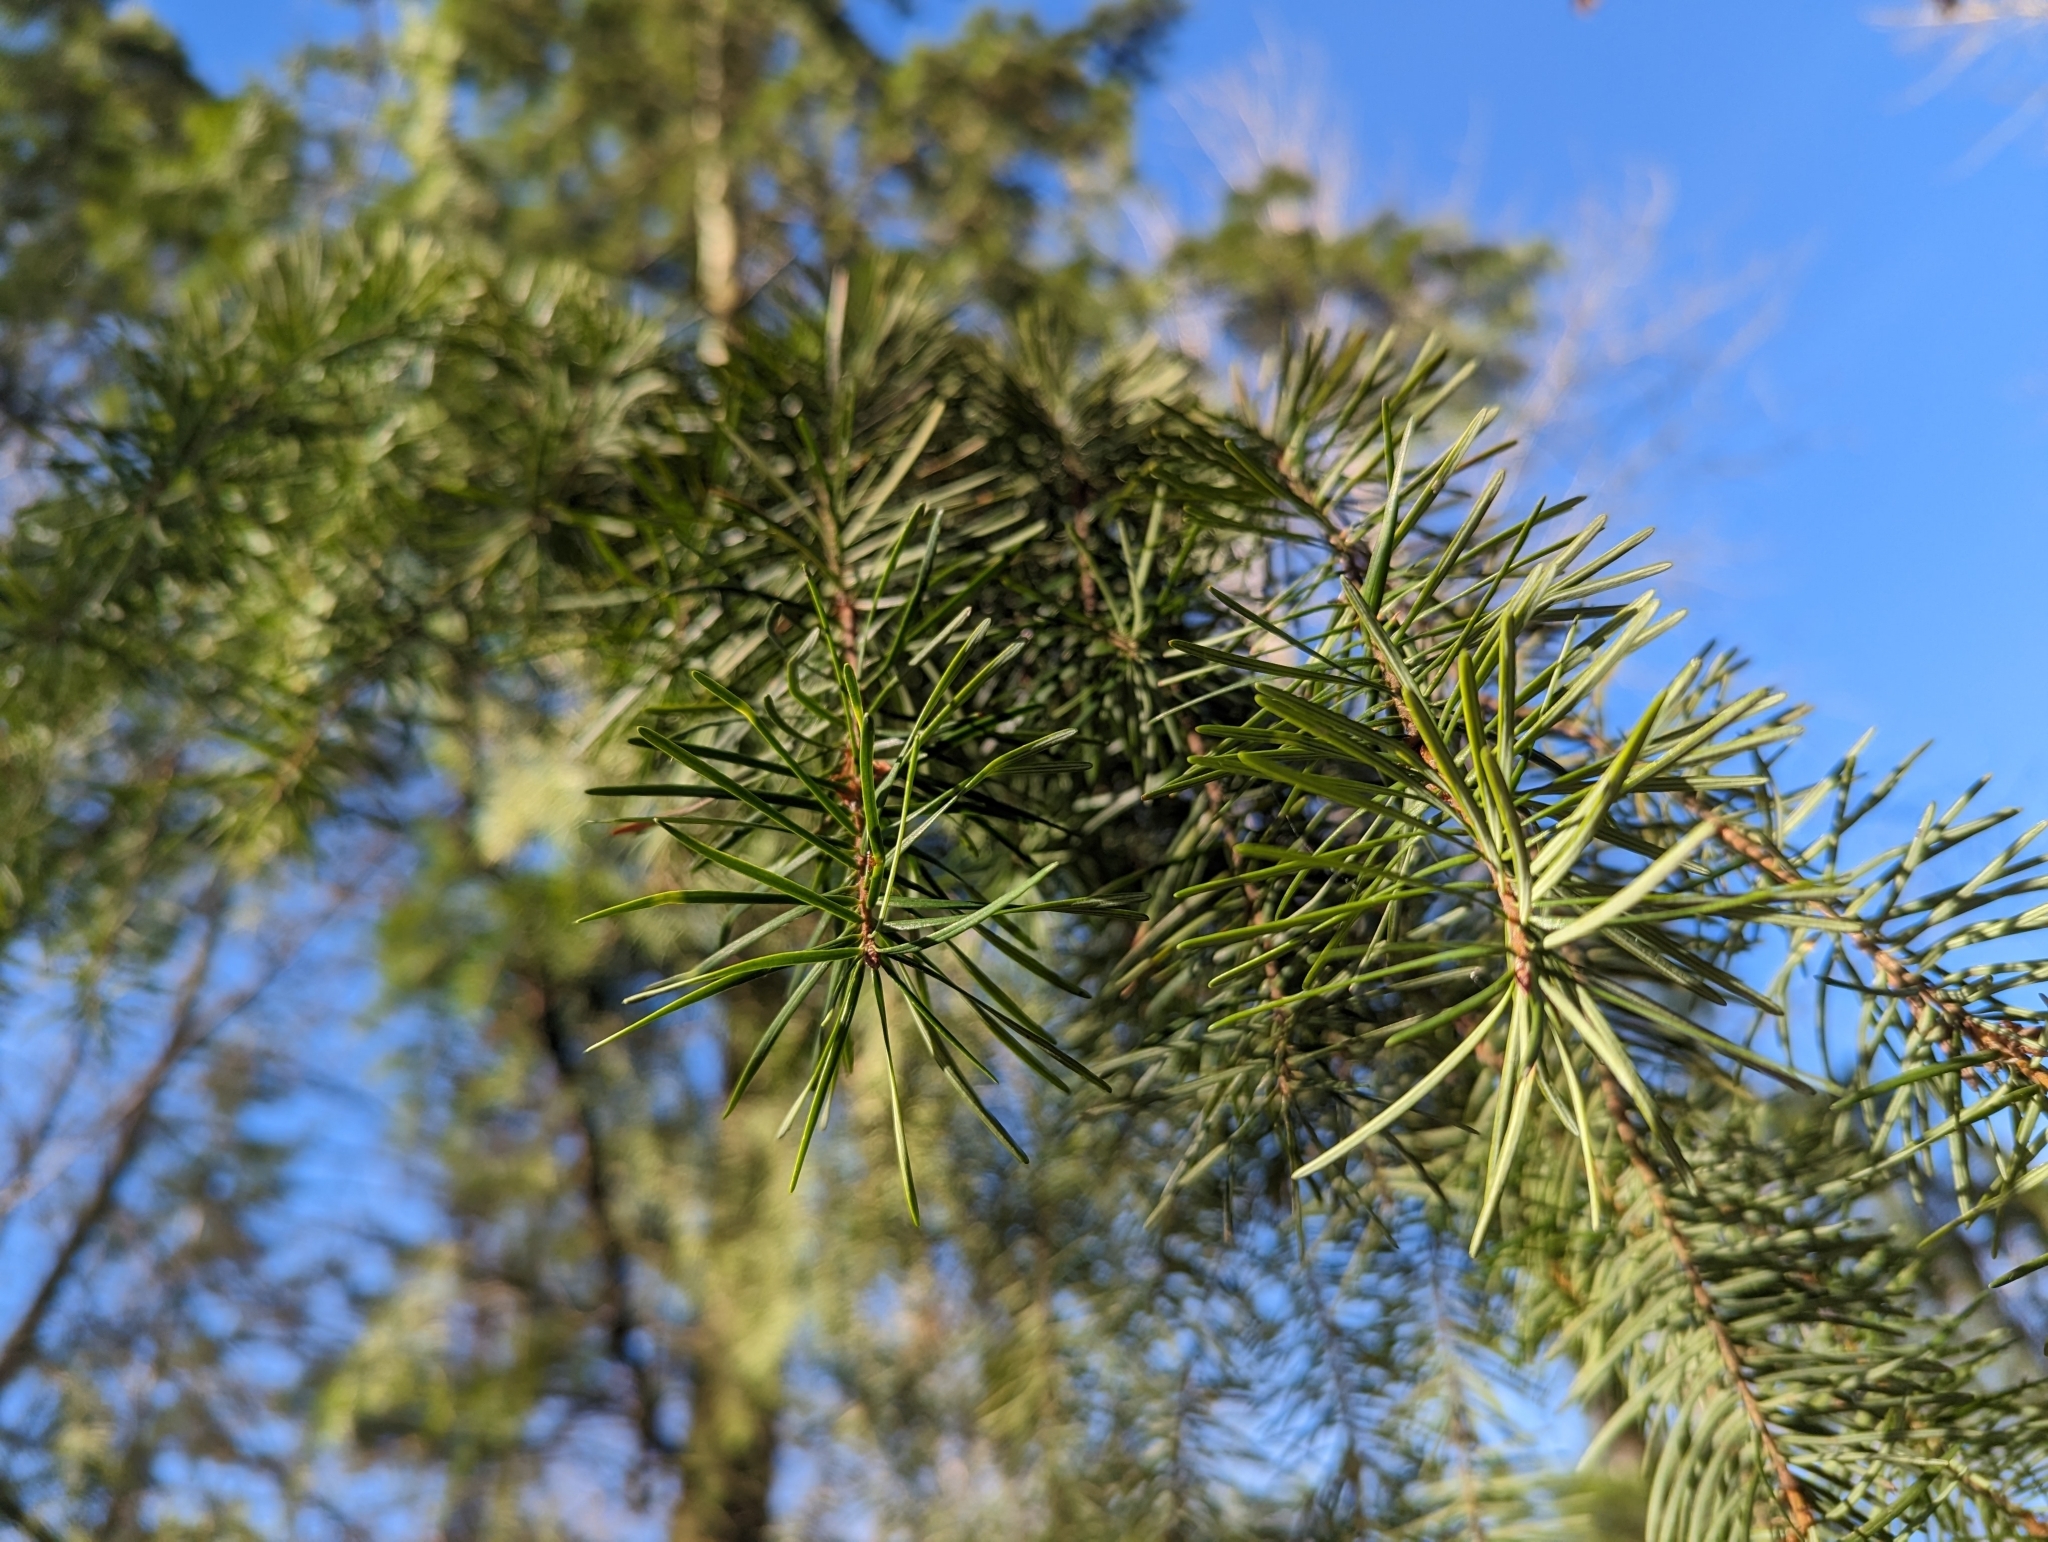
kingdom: Plantae
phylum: Tracheophyta
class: Pinopsida
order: Pinales
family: Pinaceae
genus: Pseudotsuga
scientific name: Pseudotsuga menziesii
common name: Douglas fir
